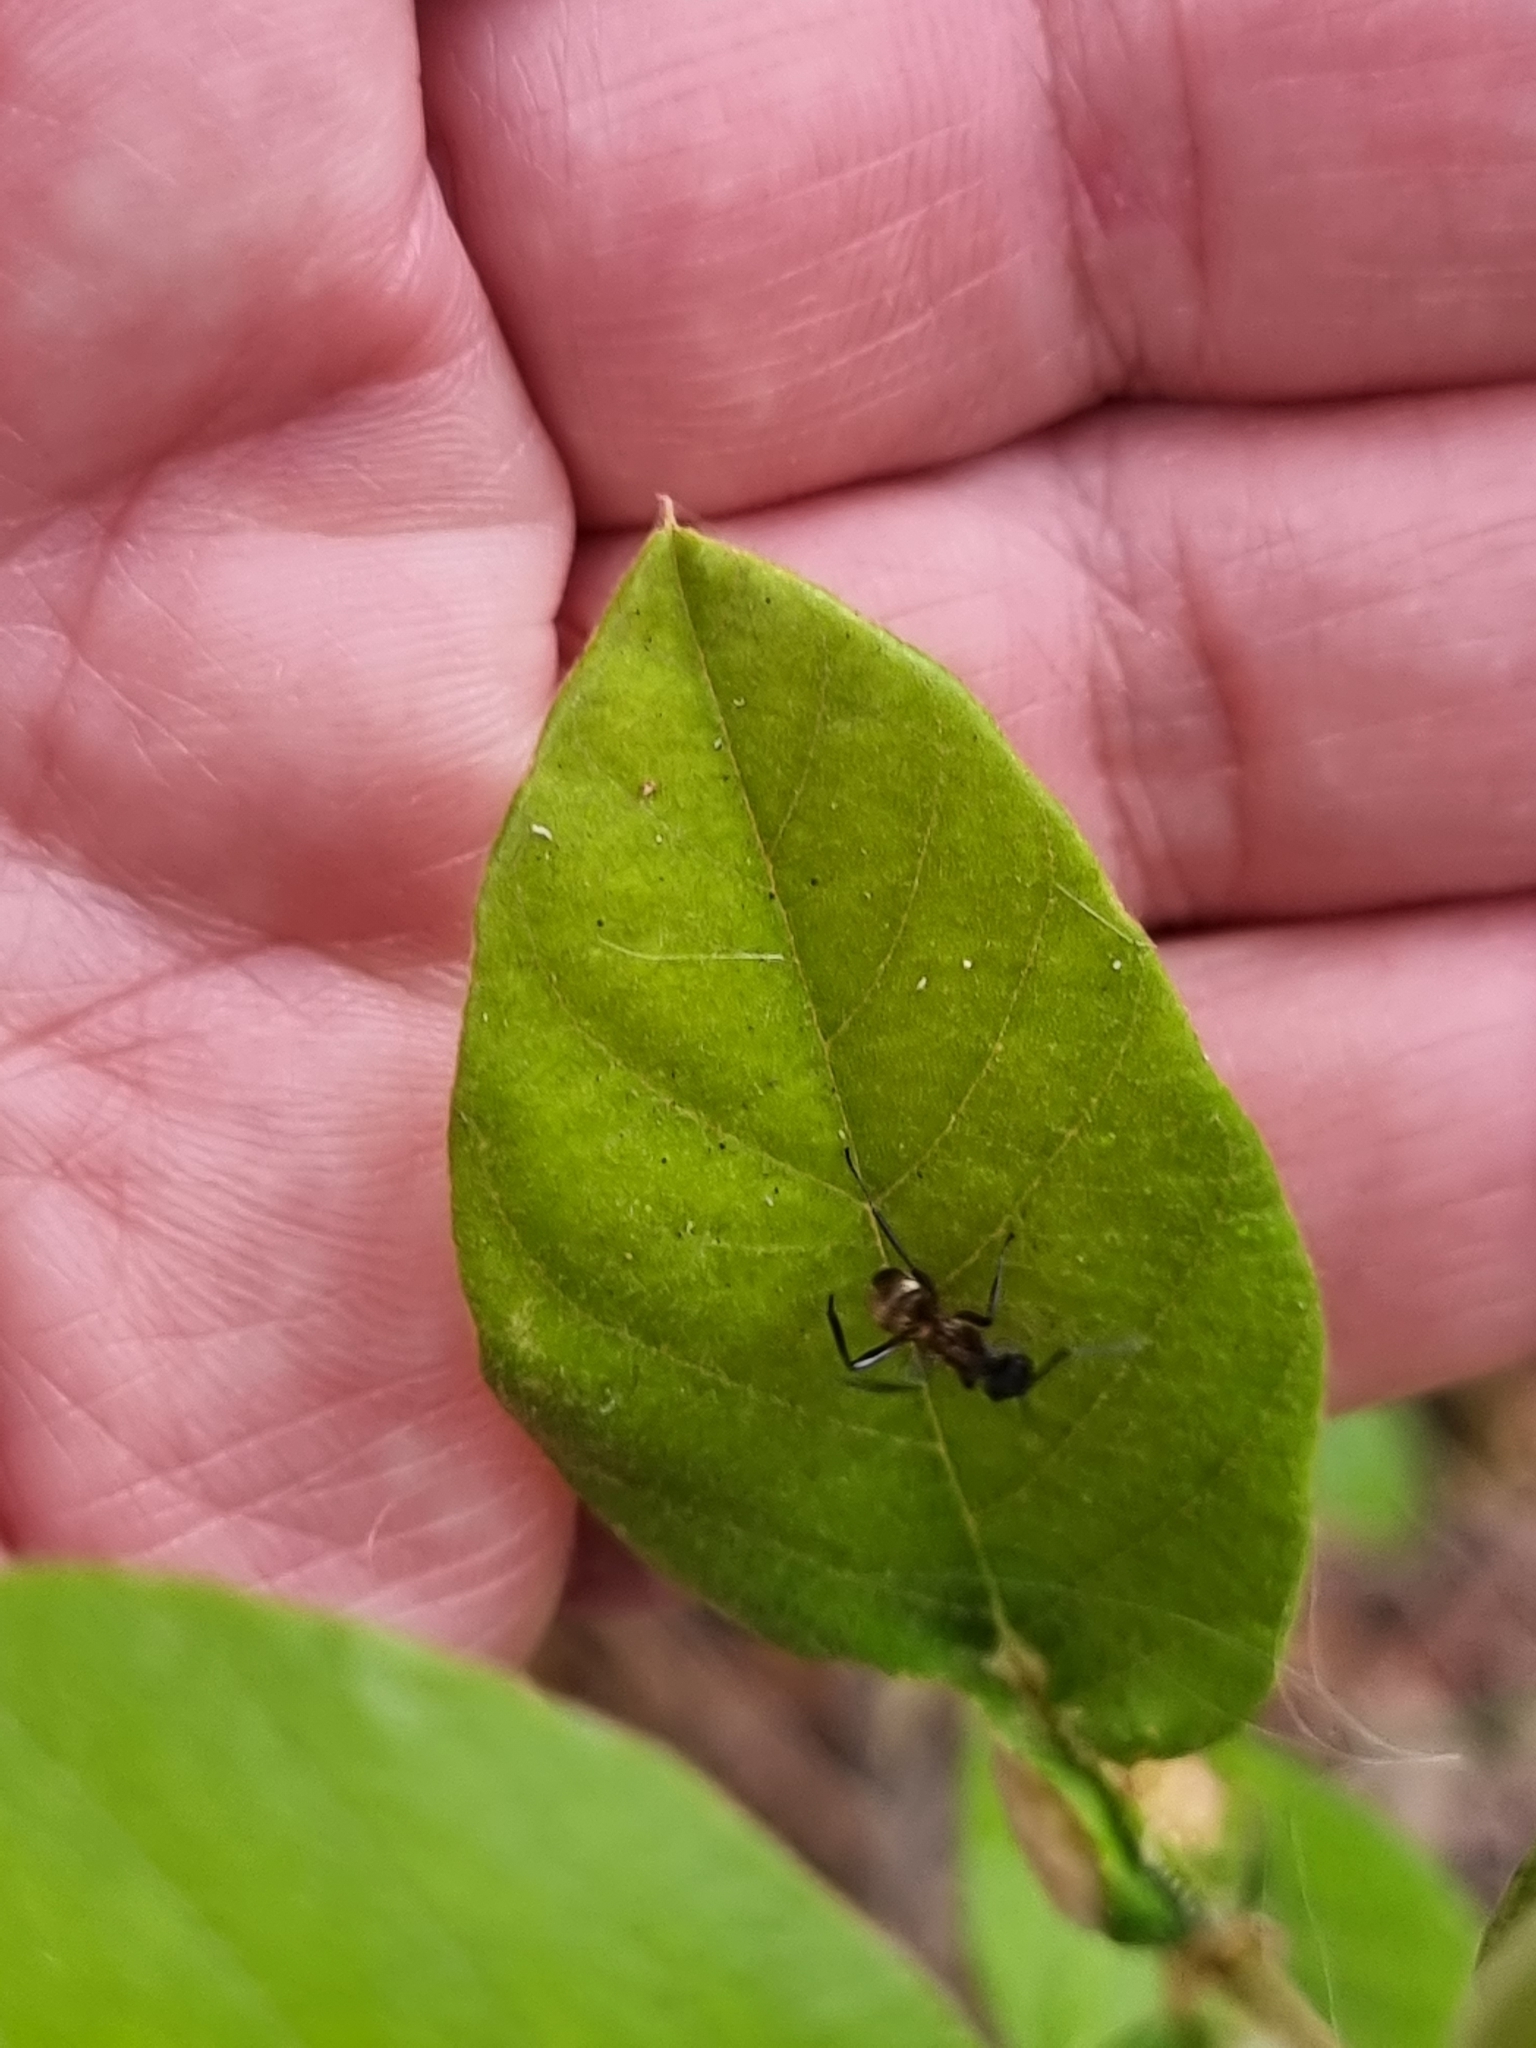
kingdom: Animalia
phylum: Arthropoda
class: Insecta
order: Hymenoptera
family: Formicidae
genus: Polyrhachis
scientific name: Polyrhachis rufifemur
